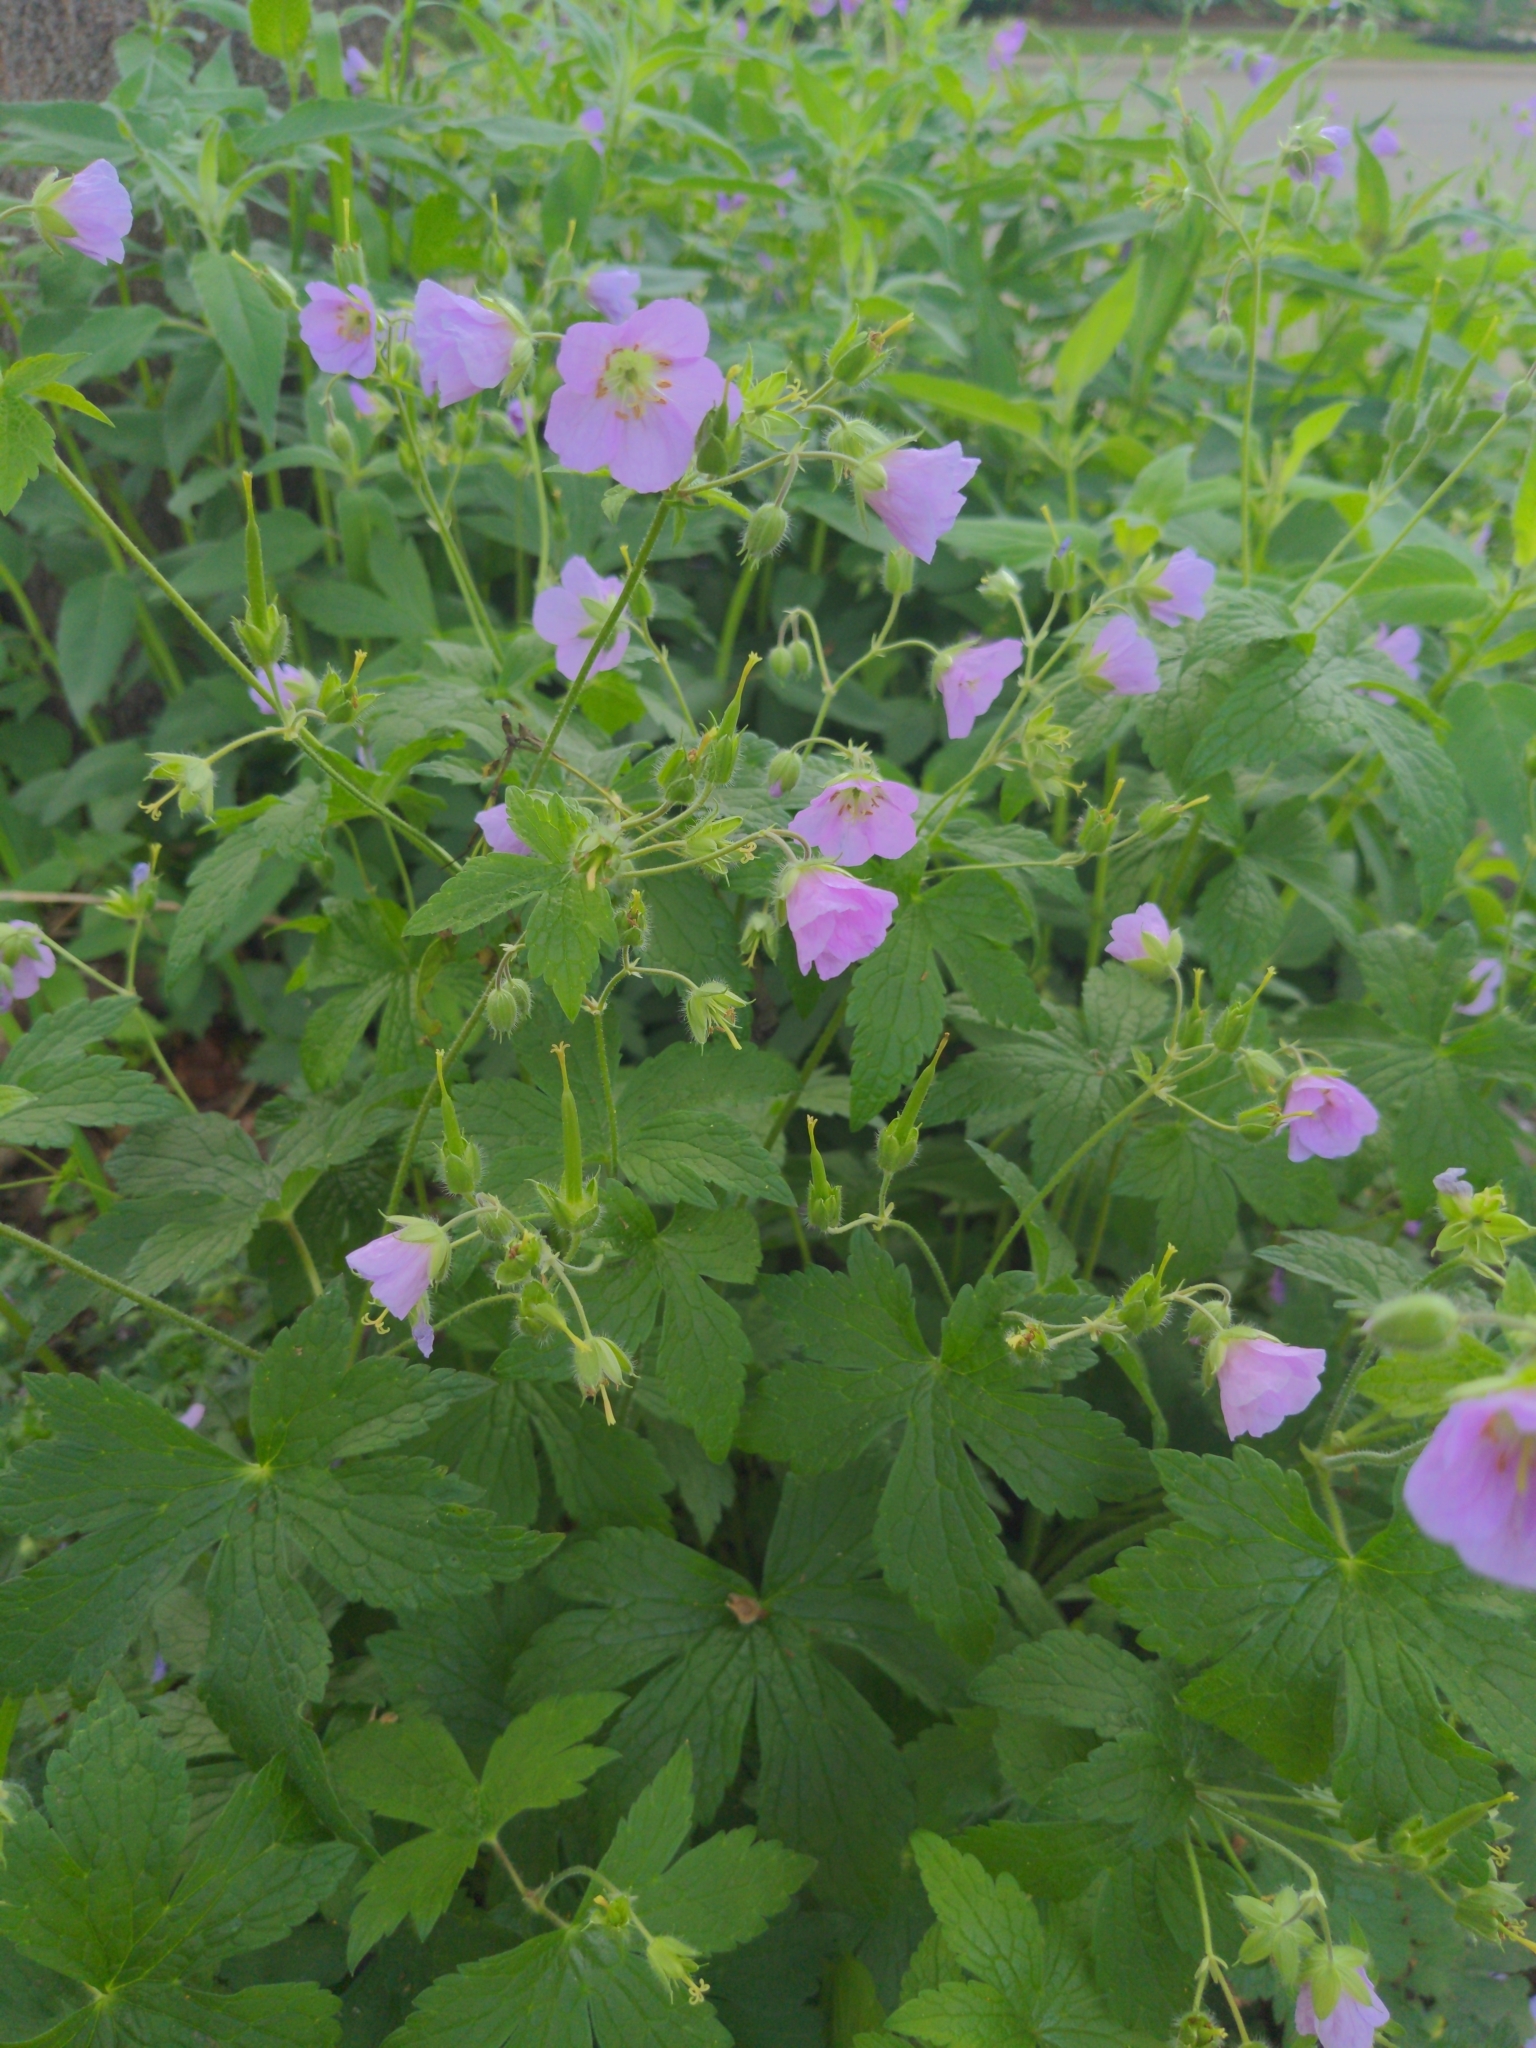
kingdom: Plantae
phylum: Tracheophyta
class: Magnoliopsida
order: Geraniales
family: Geraniaceae
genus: Geranium
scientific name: Geranium maculatum
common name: Spotted geranium
